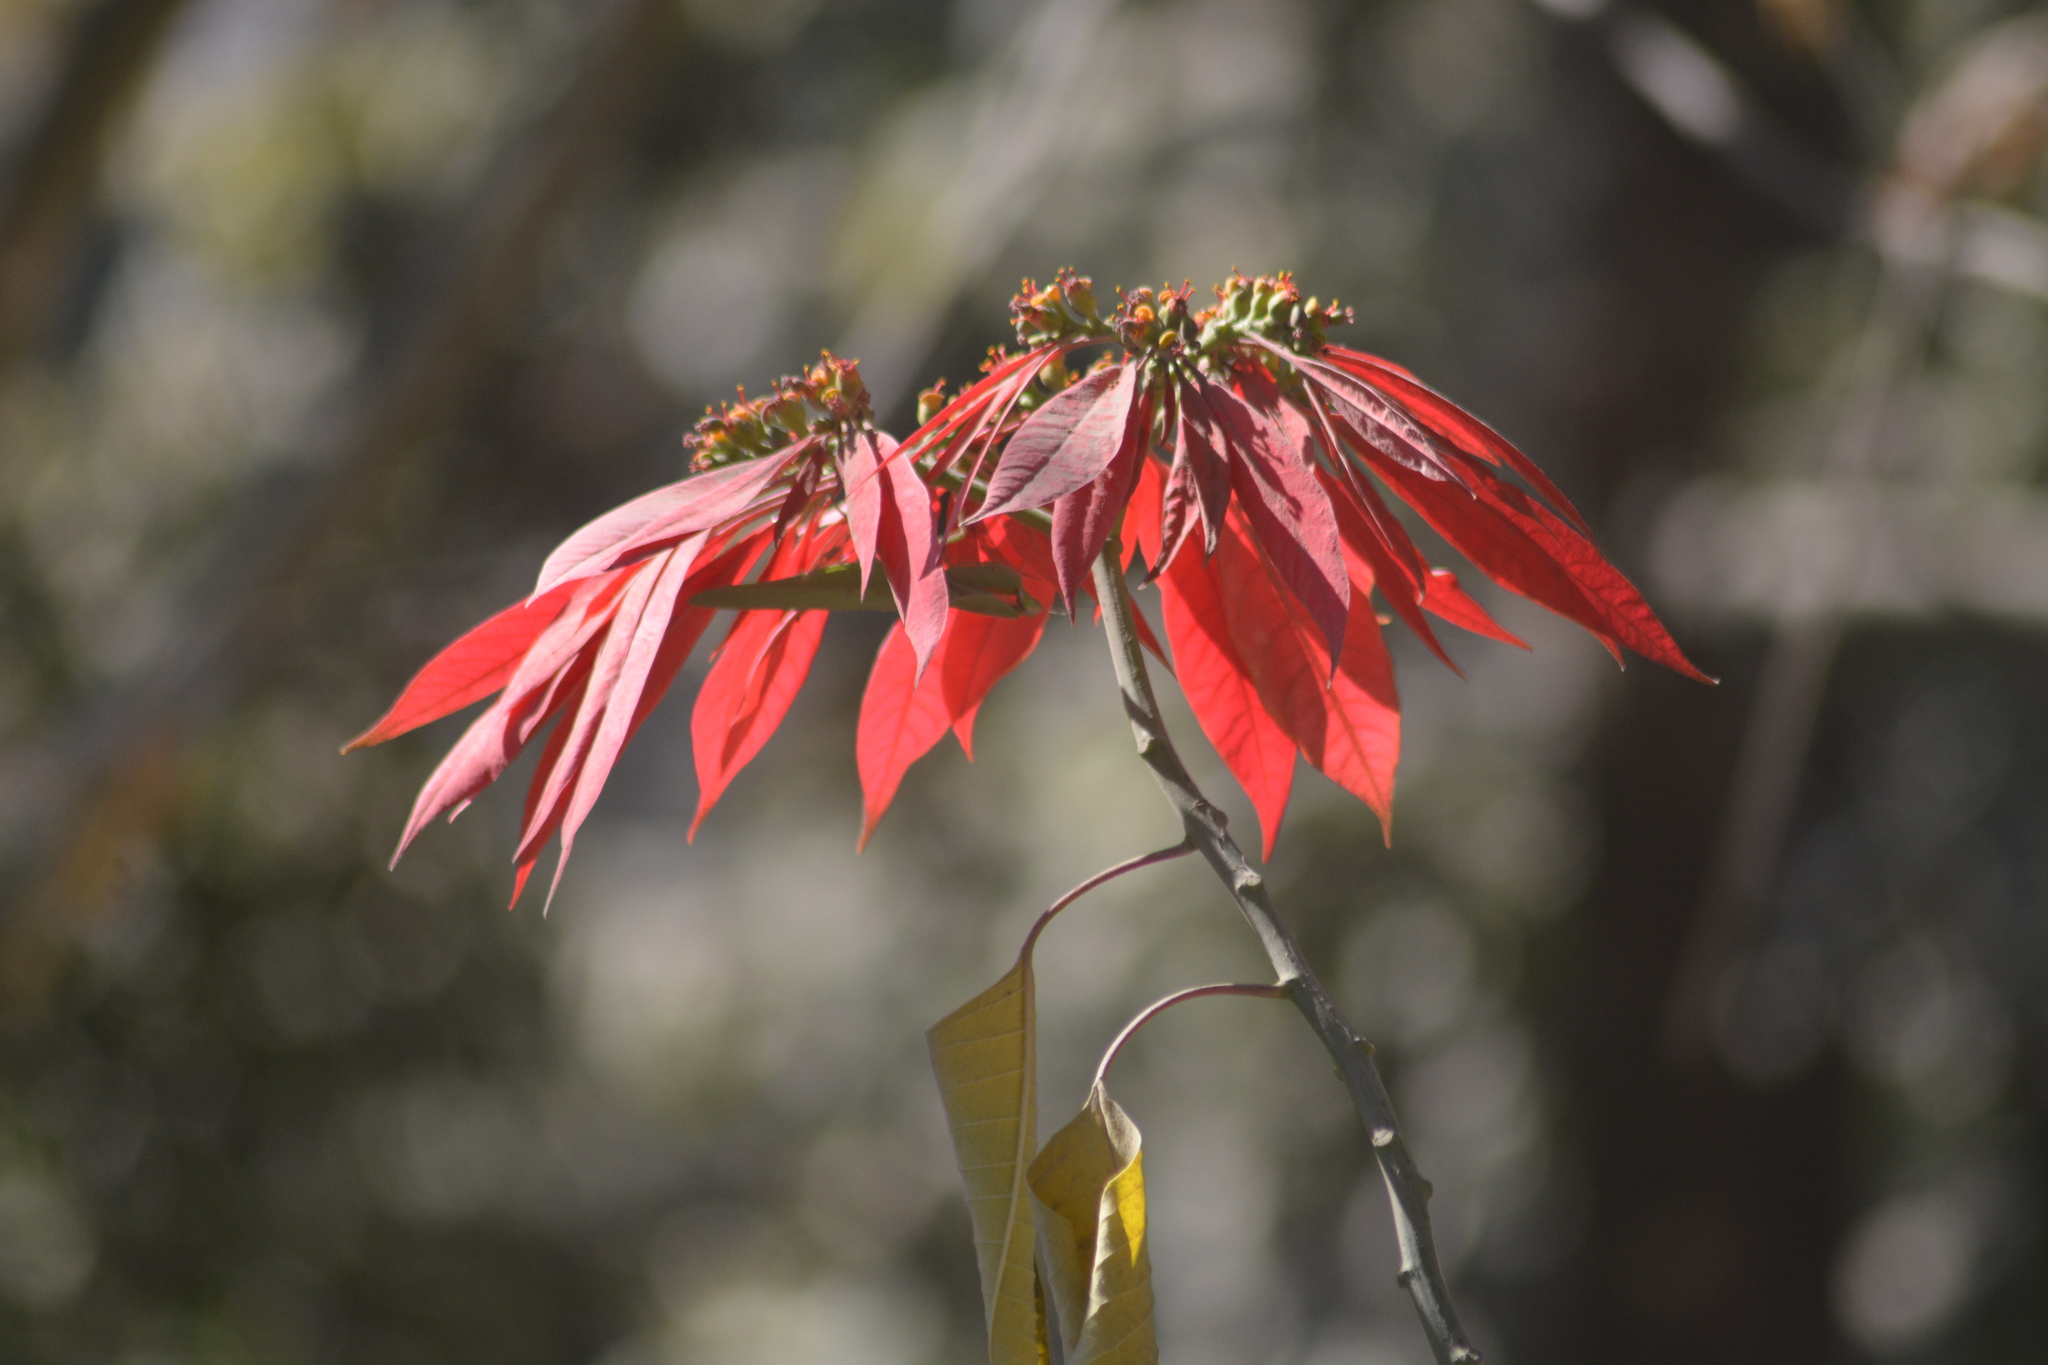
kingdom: Plantae
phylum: Tracheophyta
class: Magnoliopsida
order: Malpighiales
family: Euphorbiaceae
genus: Euphorbia
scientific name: Euphorbia pulcherrima
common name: Christmas-flower
